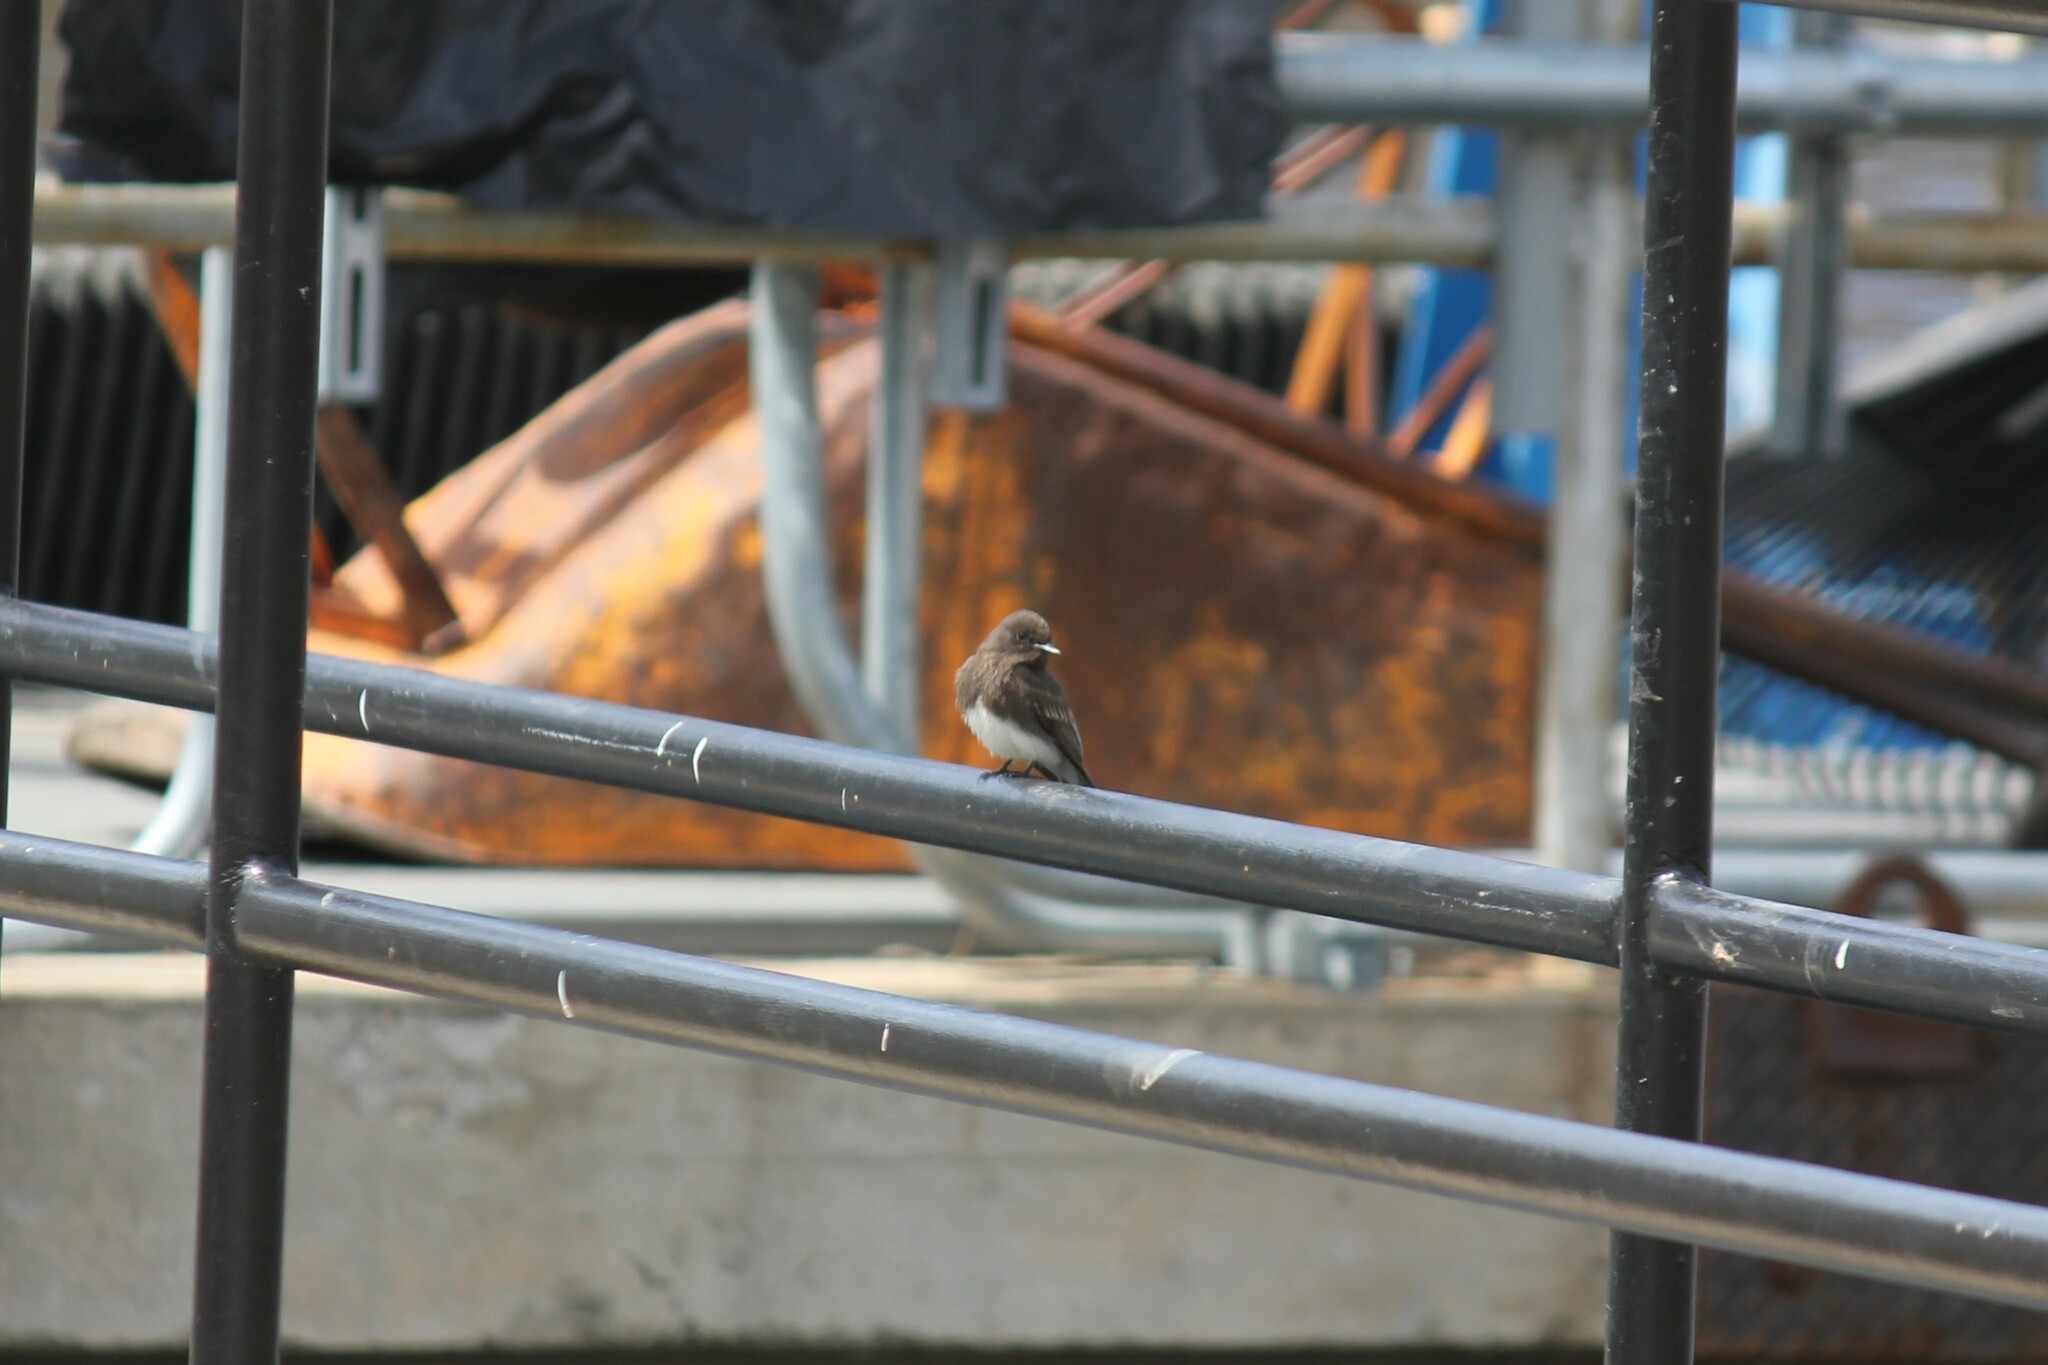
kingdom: Animalia
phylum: Chordata
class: Aves
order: Passeriformes
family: Tyrannidae
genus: Sayornis
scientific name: Sayornis nigricans
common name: Black phoebe
